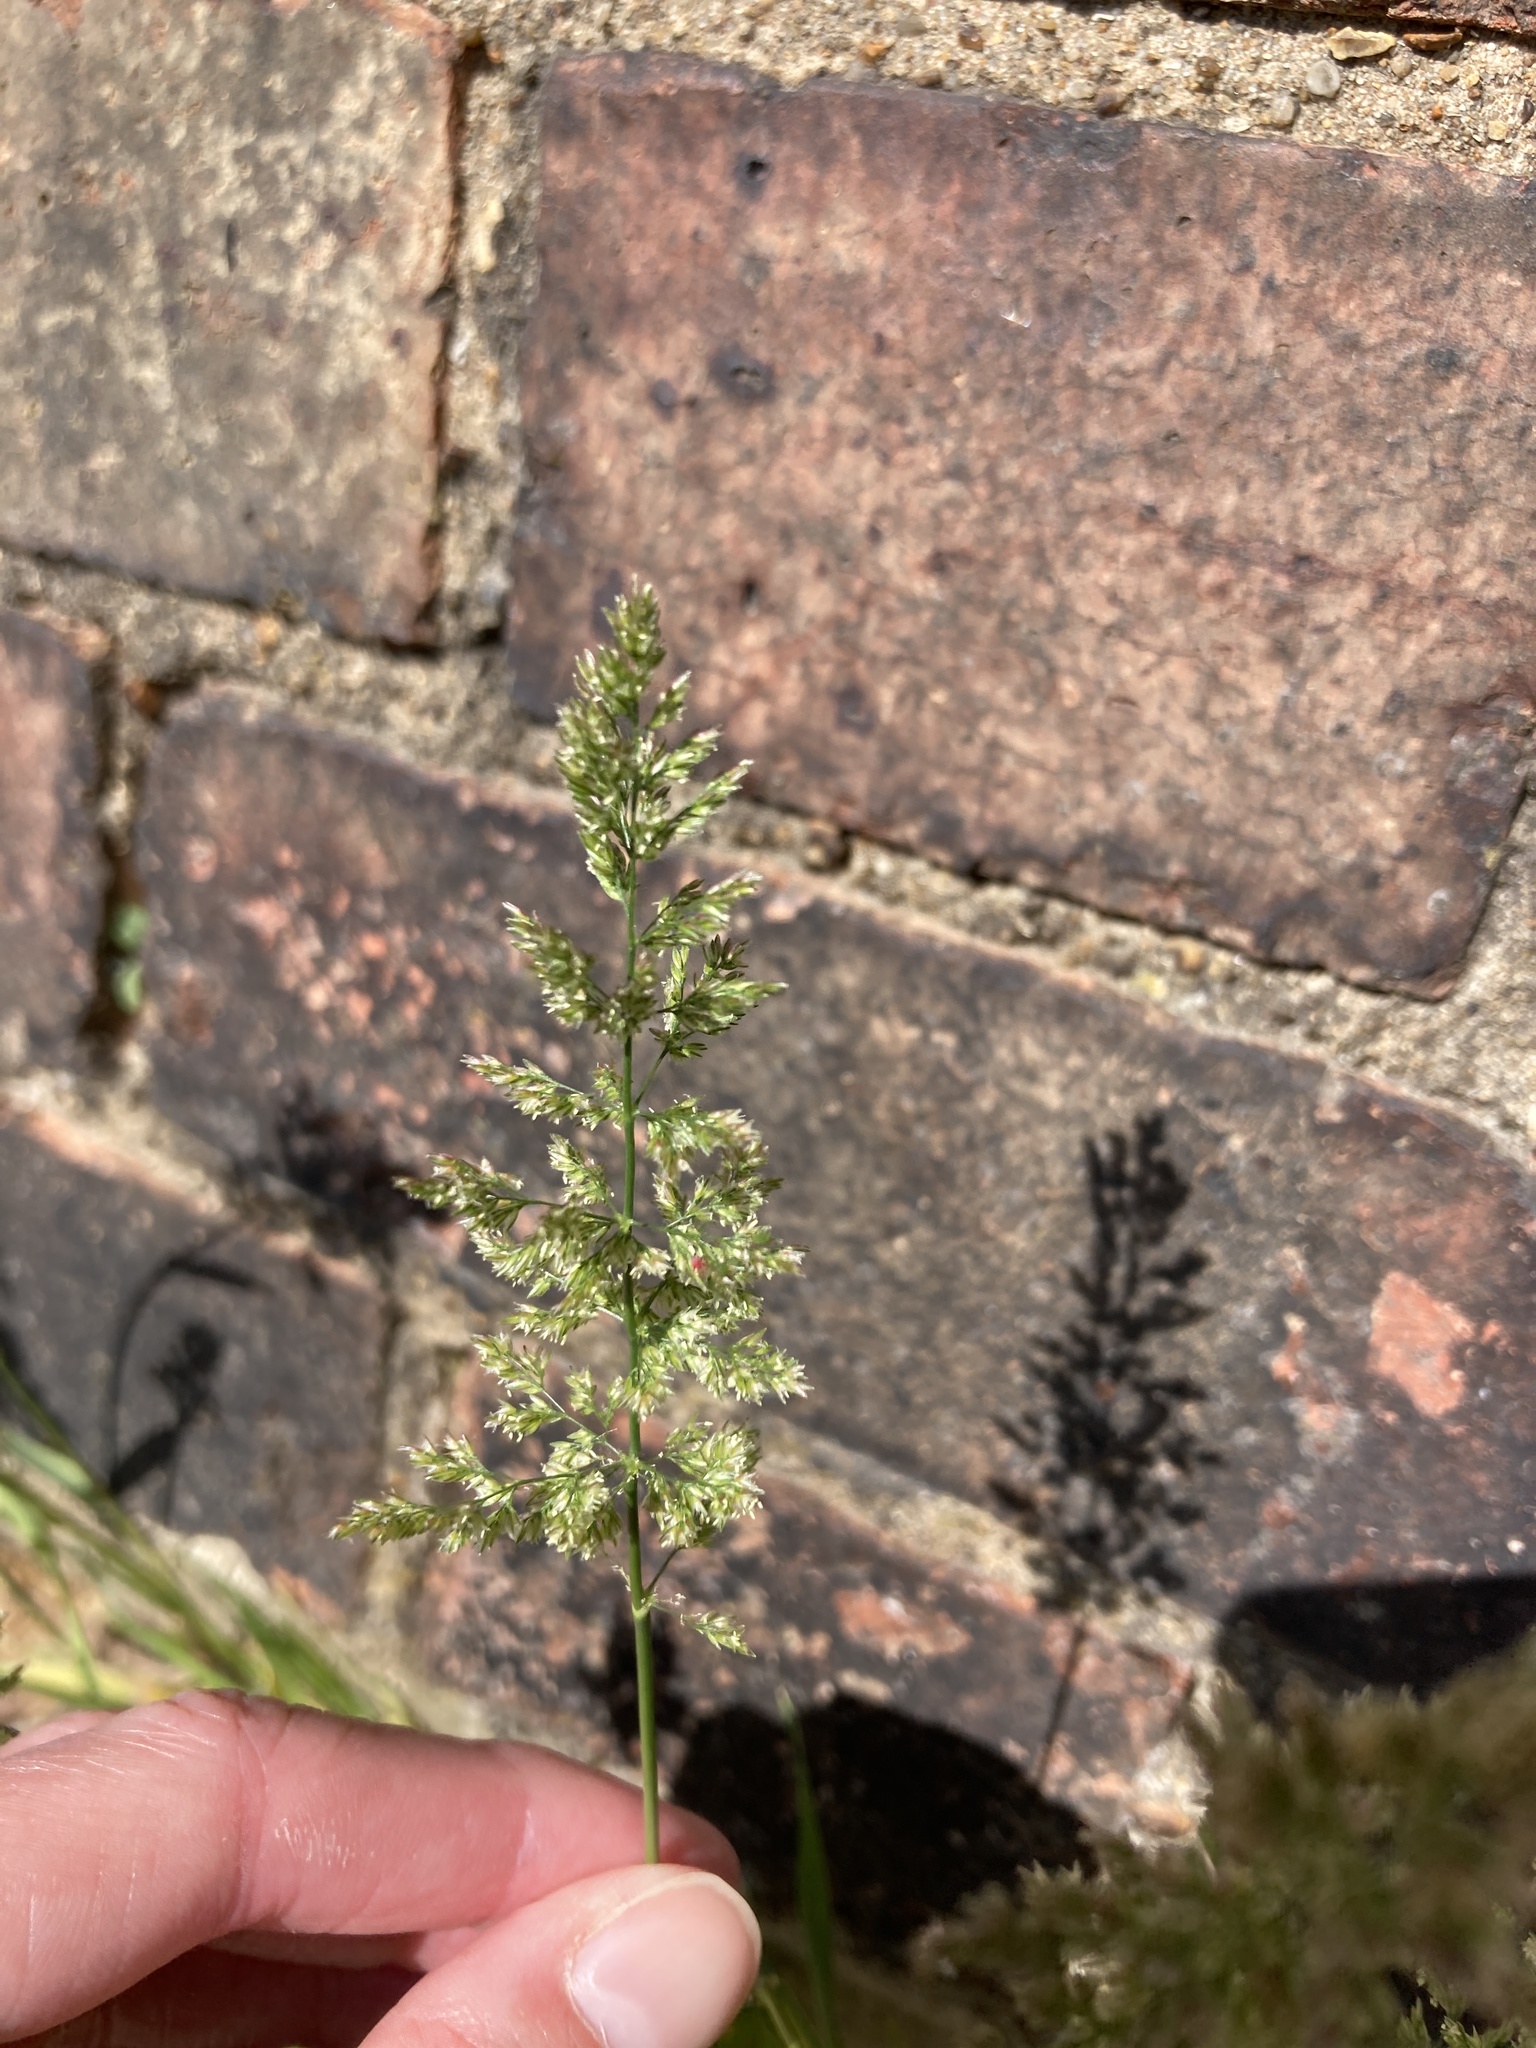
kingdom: Plantae
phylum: Tracheophyta
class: Liliopsida
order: Poales
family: Poaceae
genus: Polypogon
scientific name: Polypogon viridis
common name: Water bent
